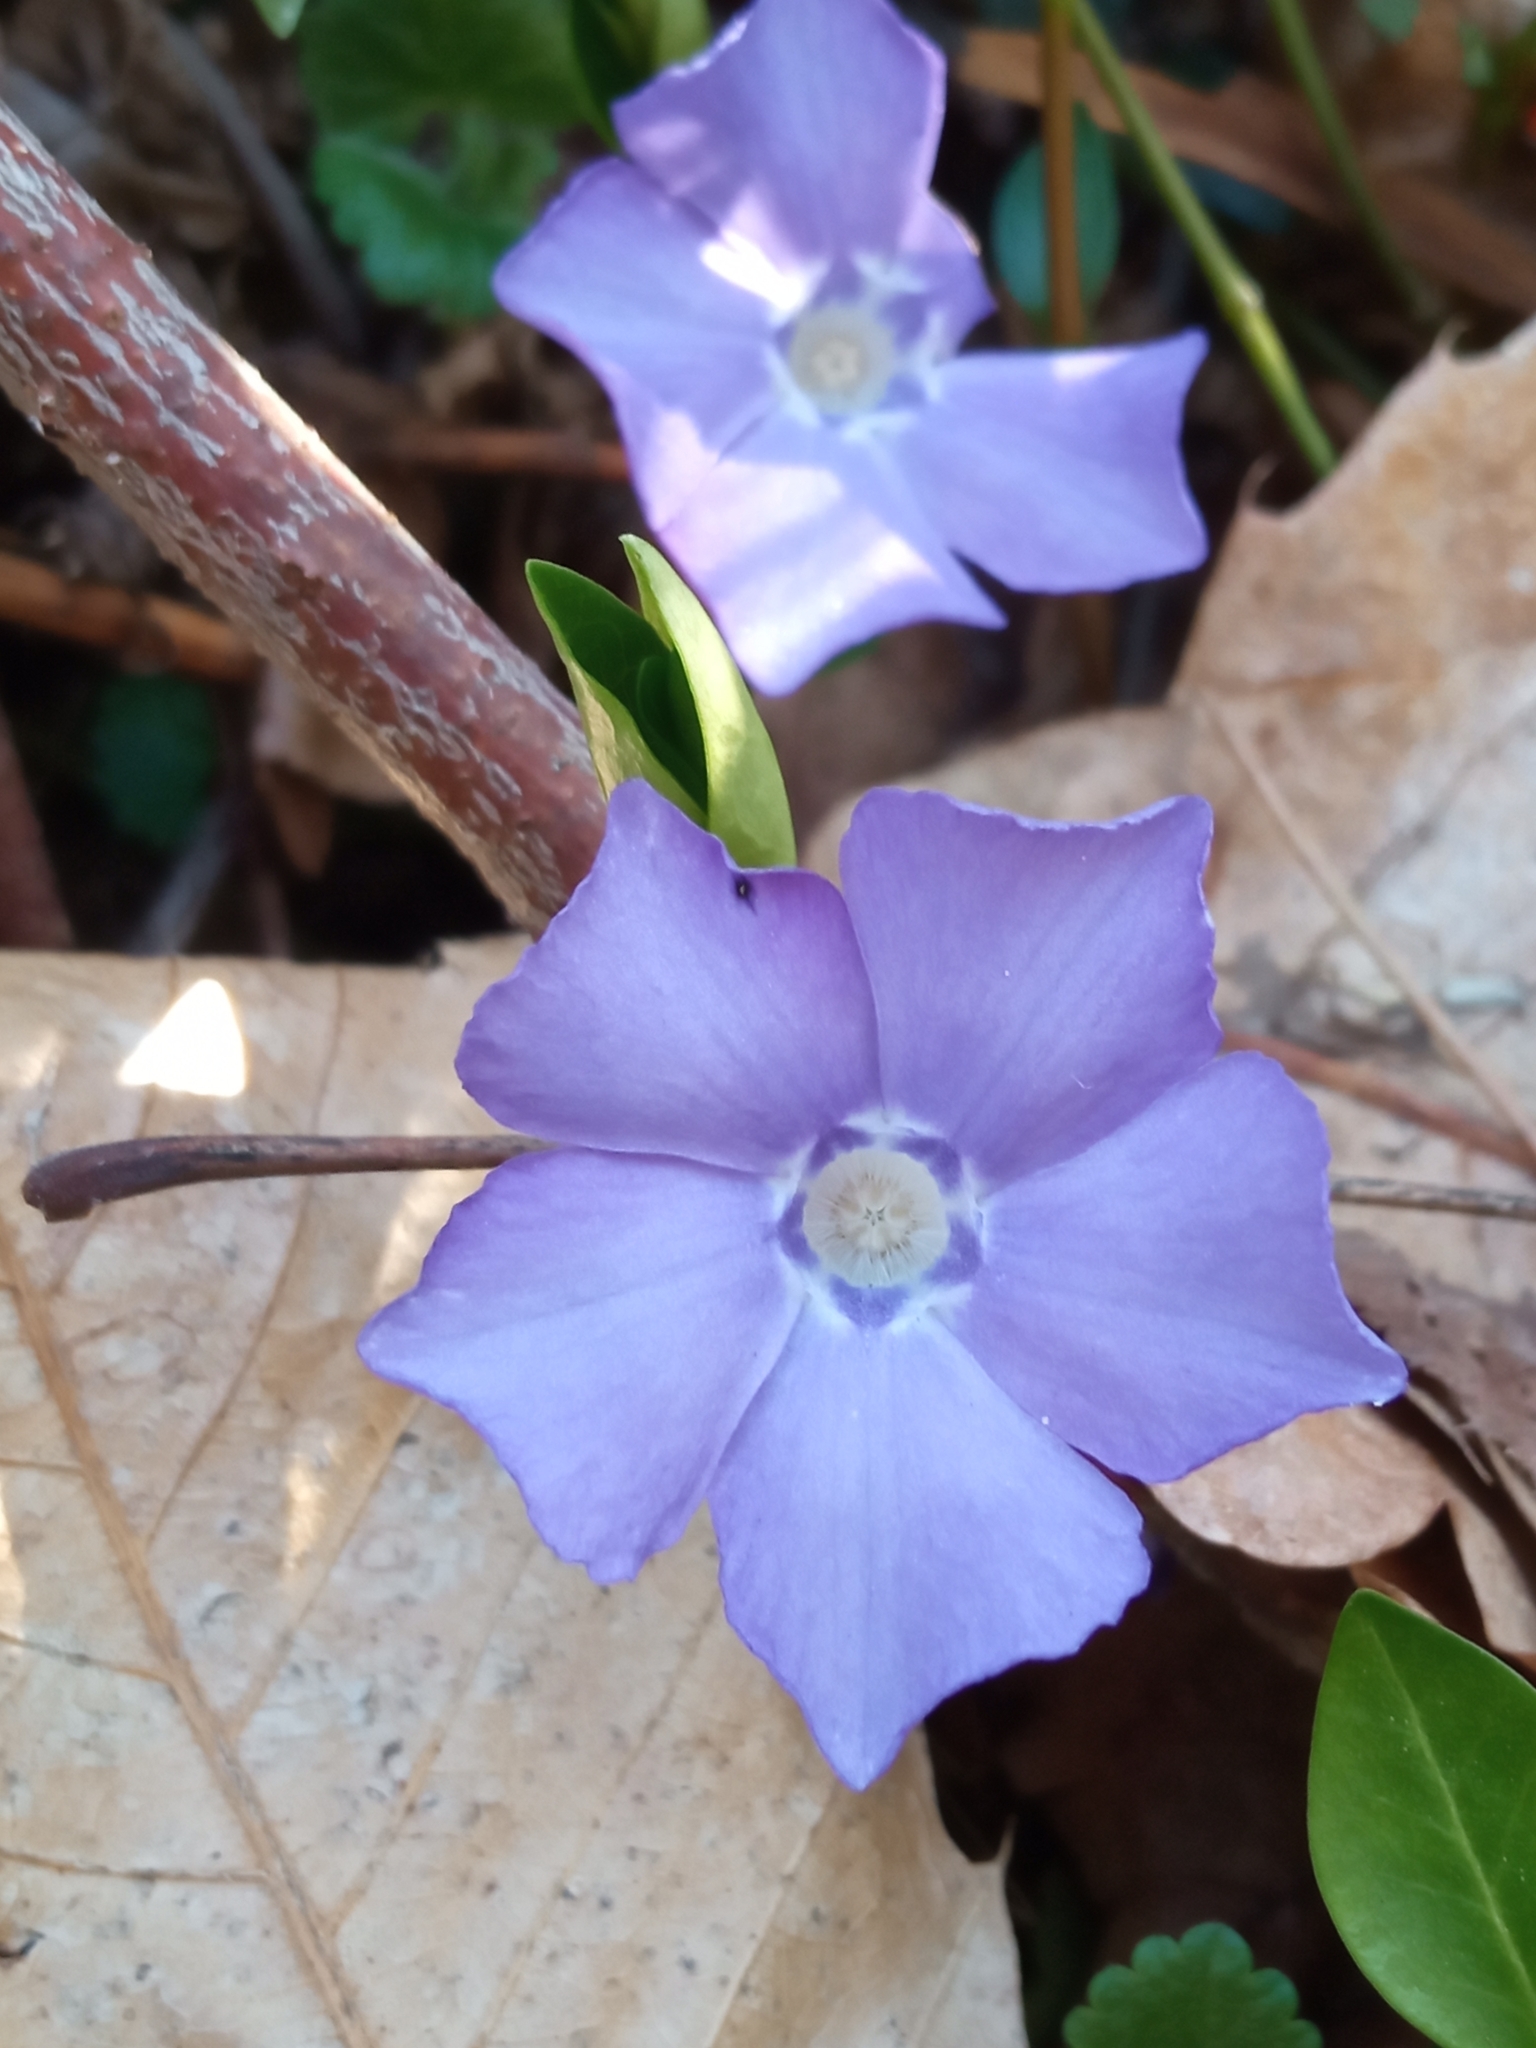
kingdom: Plantae
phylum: Tracheophyta
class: Magnoliopsida
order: Gentianales
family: Apocynaceae
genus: Vinca
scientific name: Vinca minor
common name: Lesser periwinkle
